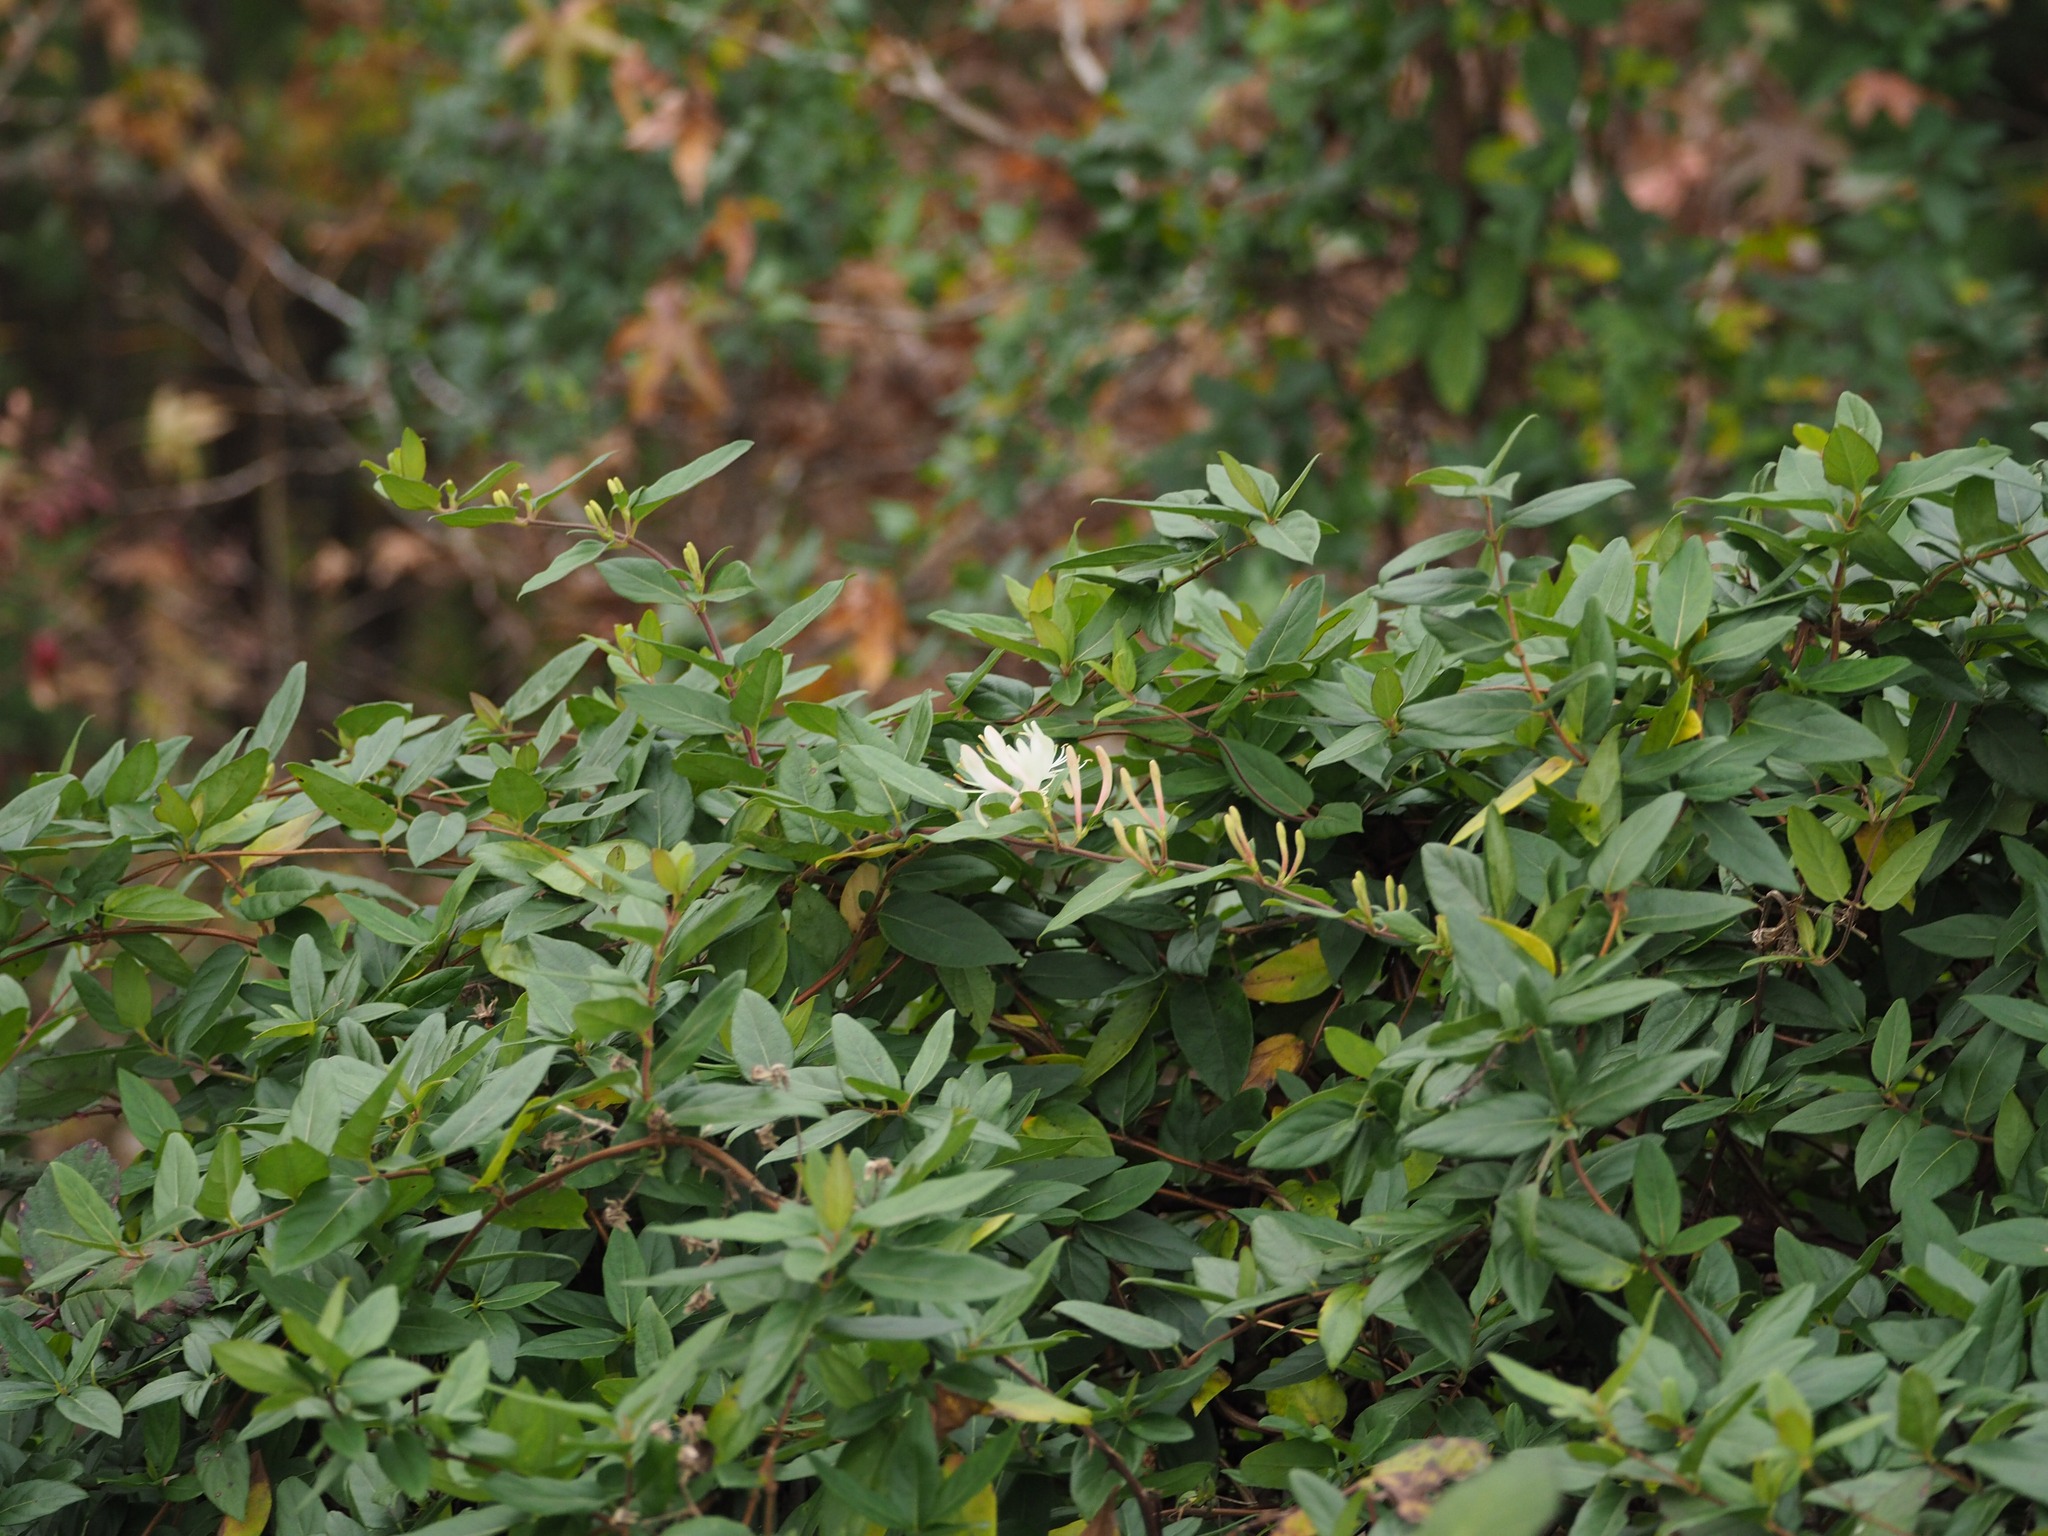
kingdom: Plantae
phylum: Tracheophyta
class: Magnoliopsida
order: Dipsacales
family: Caprifoliaceae
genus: Lonicera
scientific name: Lonicera japonica
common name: Japanese honeysuckle
